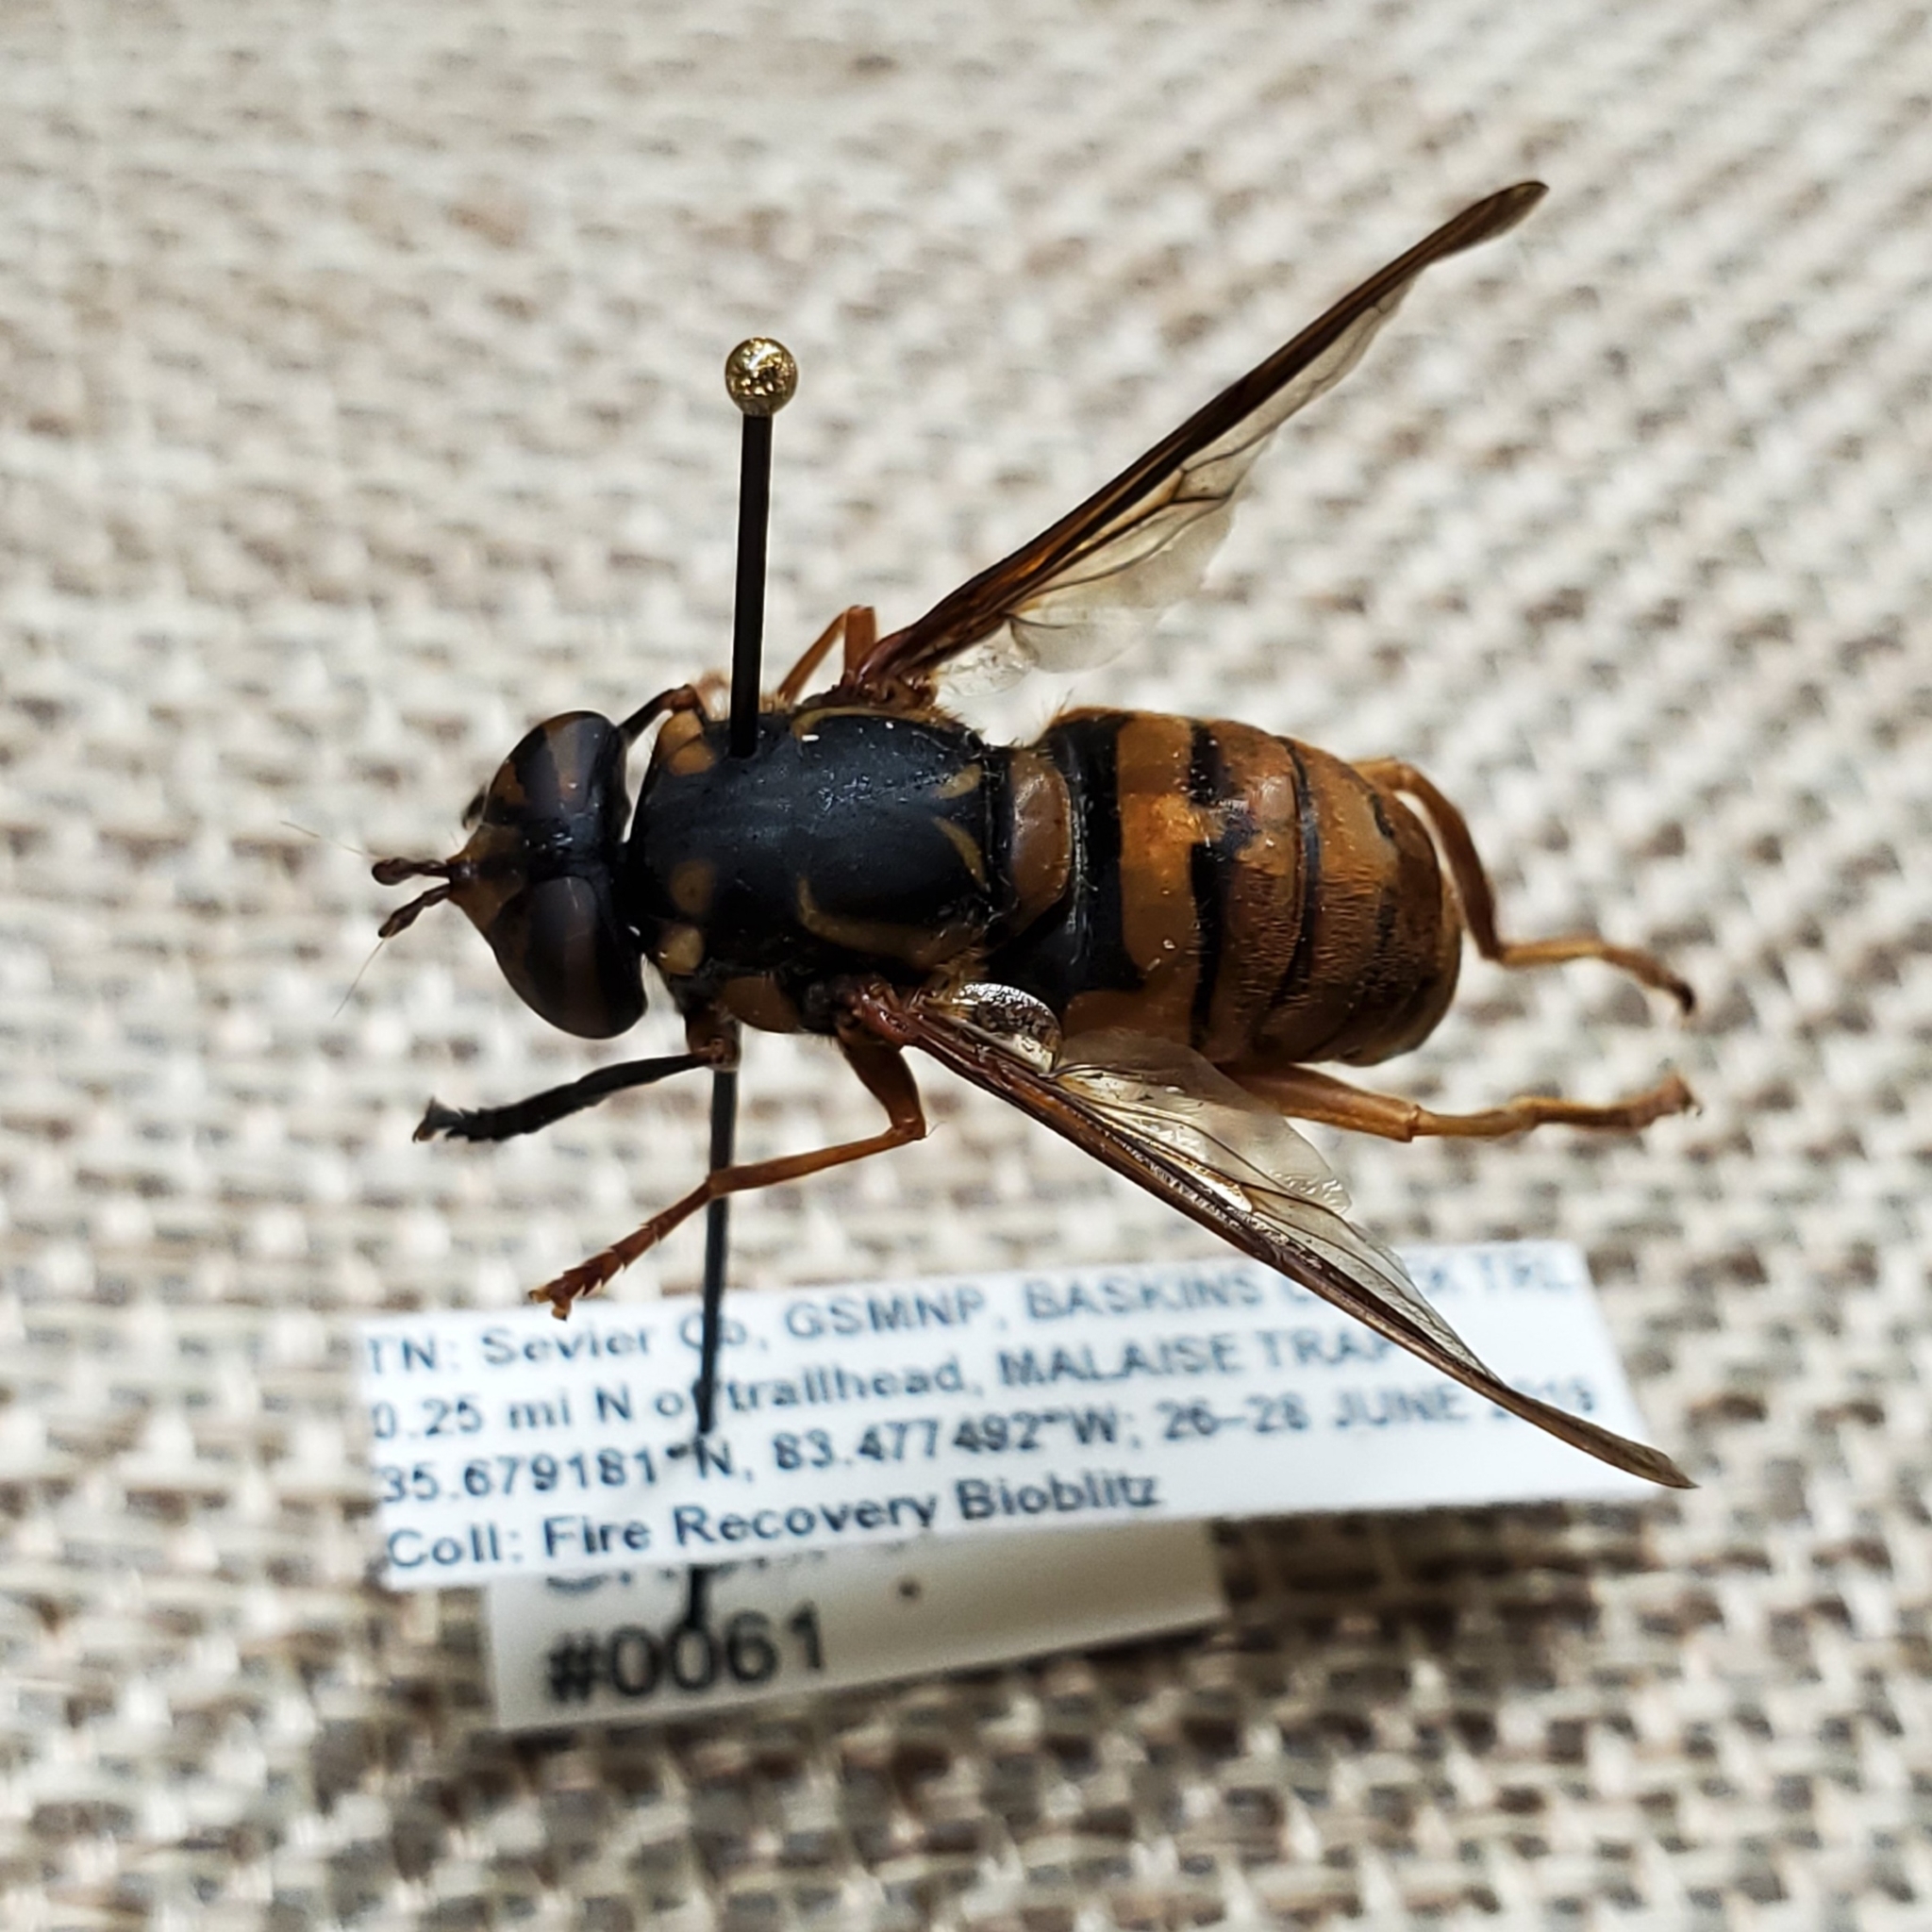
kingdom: Animalia
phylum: Arthropoda
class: Insecta
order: Diptera
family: Syrphidae
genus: Spilomyia
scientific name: Spilomyia alcimus
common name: Broad-banded hornet fly
